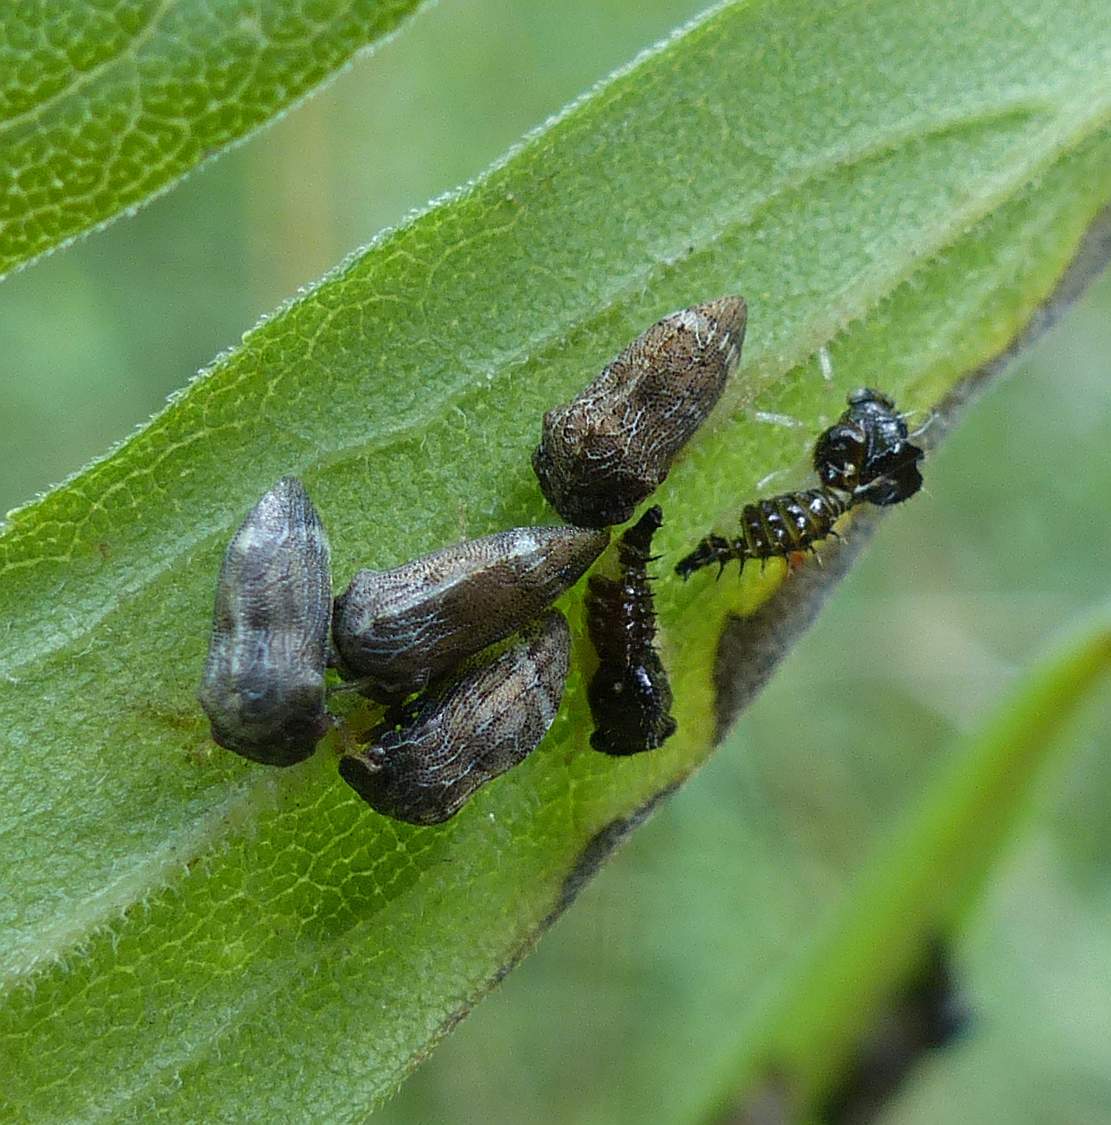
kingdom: Animalia
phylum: Arthropoda
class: Insecta
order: Hemiptera
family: Membracidae
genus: Publilia
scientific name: Publilia concava
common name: Aster treehopper
